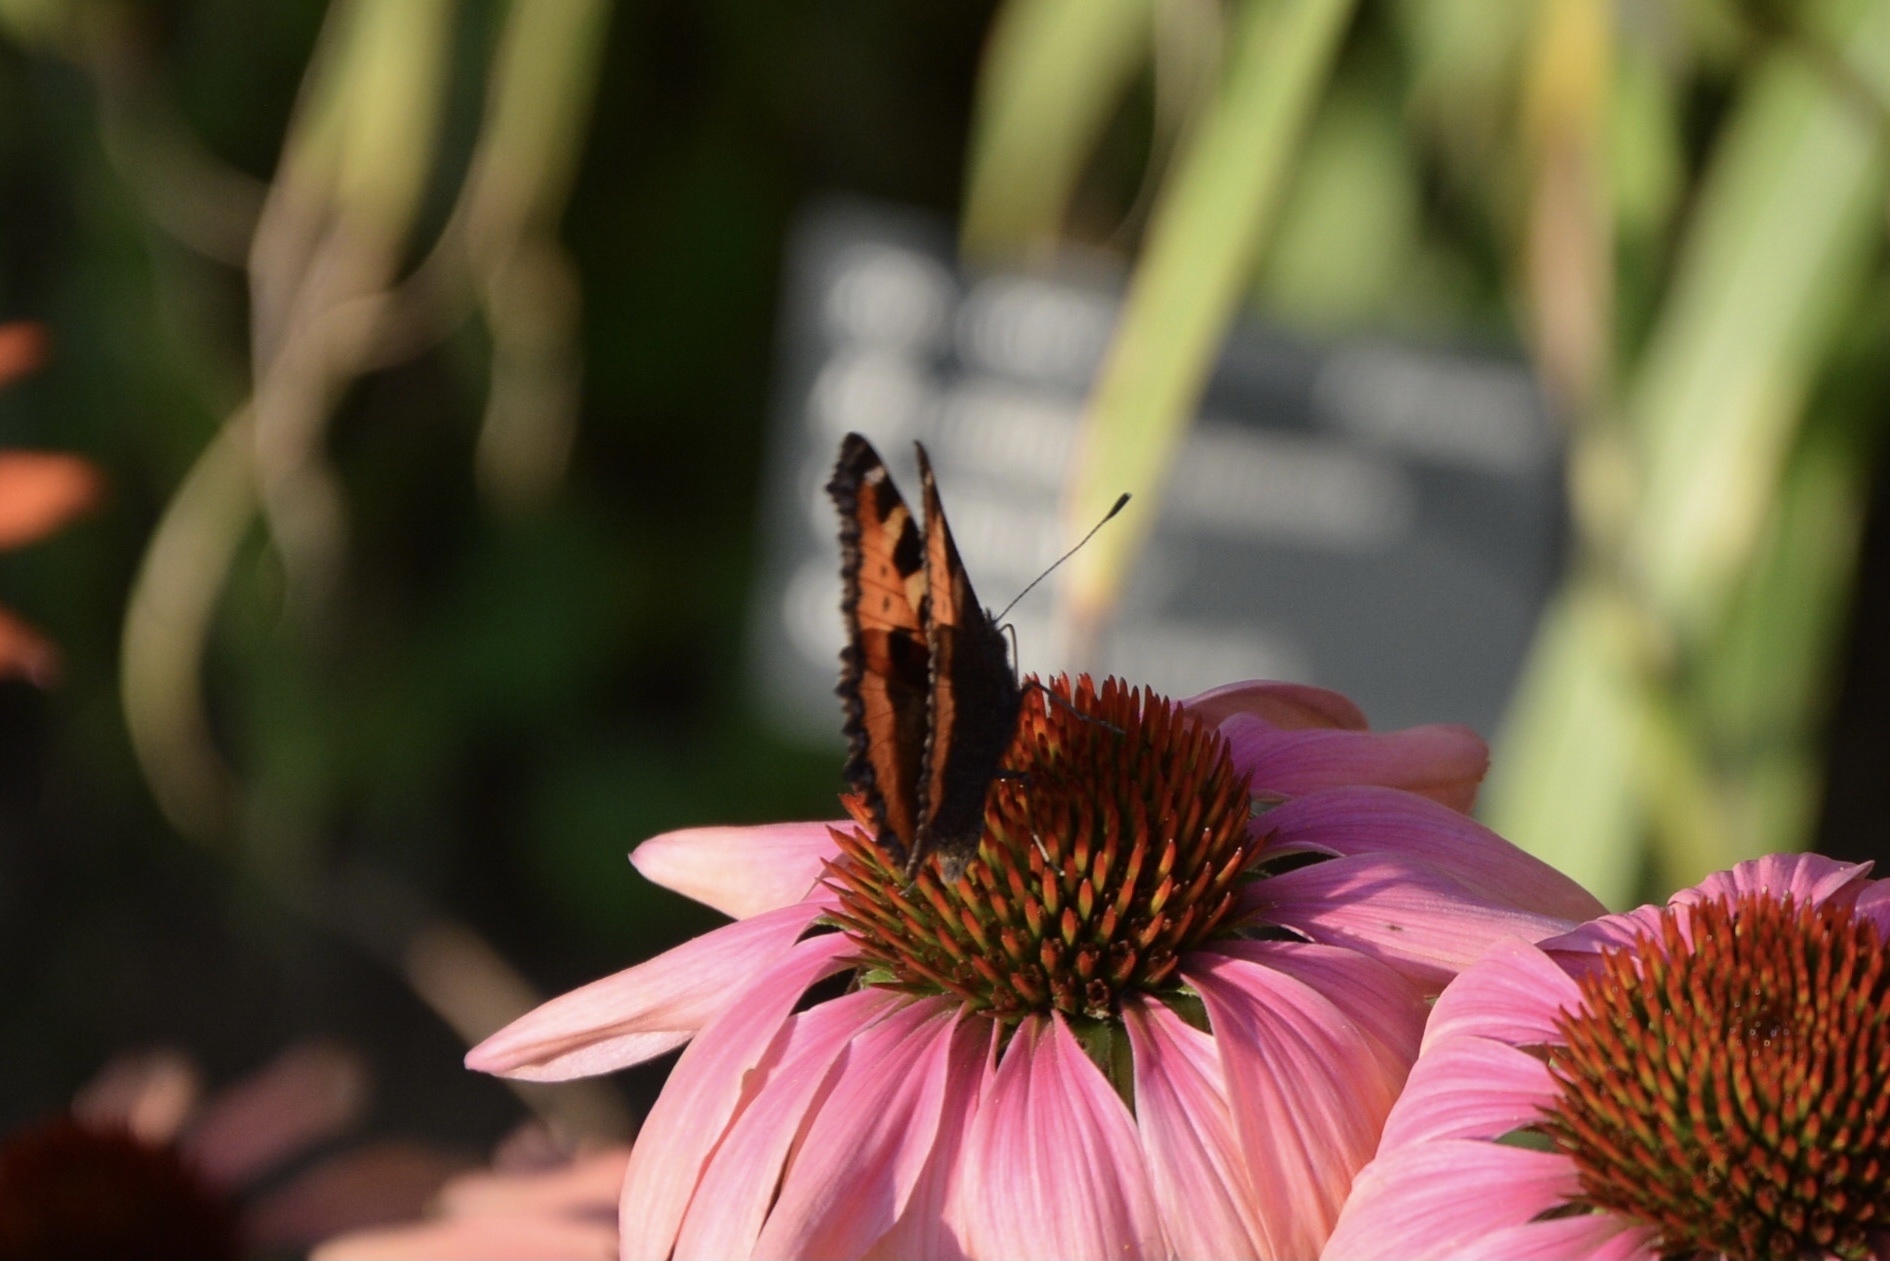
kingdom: Animalia
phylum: Arthropoda
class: Insecta
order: Lepidoptera
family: Nymphalidae
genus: Aglais
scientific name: Aglais urticae
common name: Small tortoiseshell
